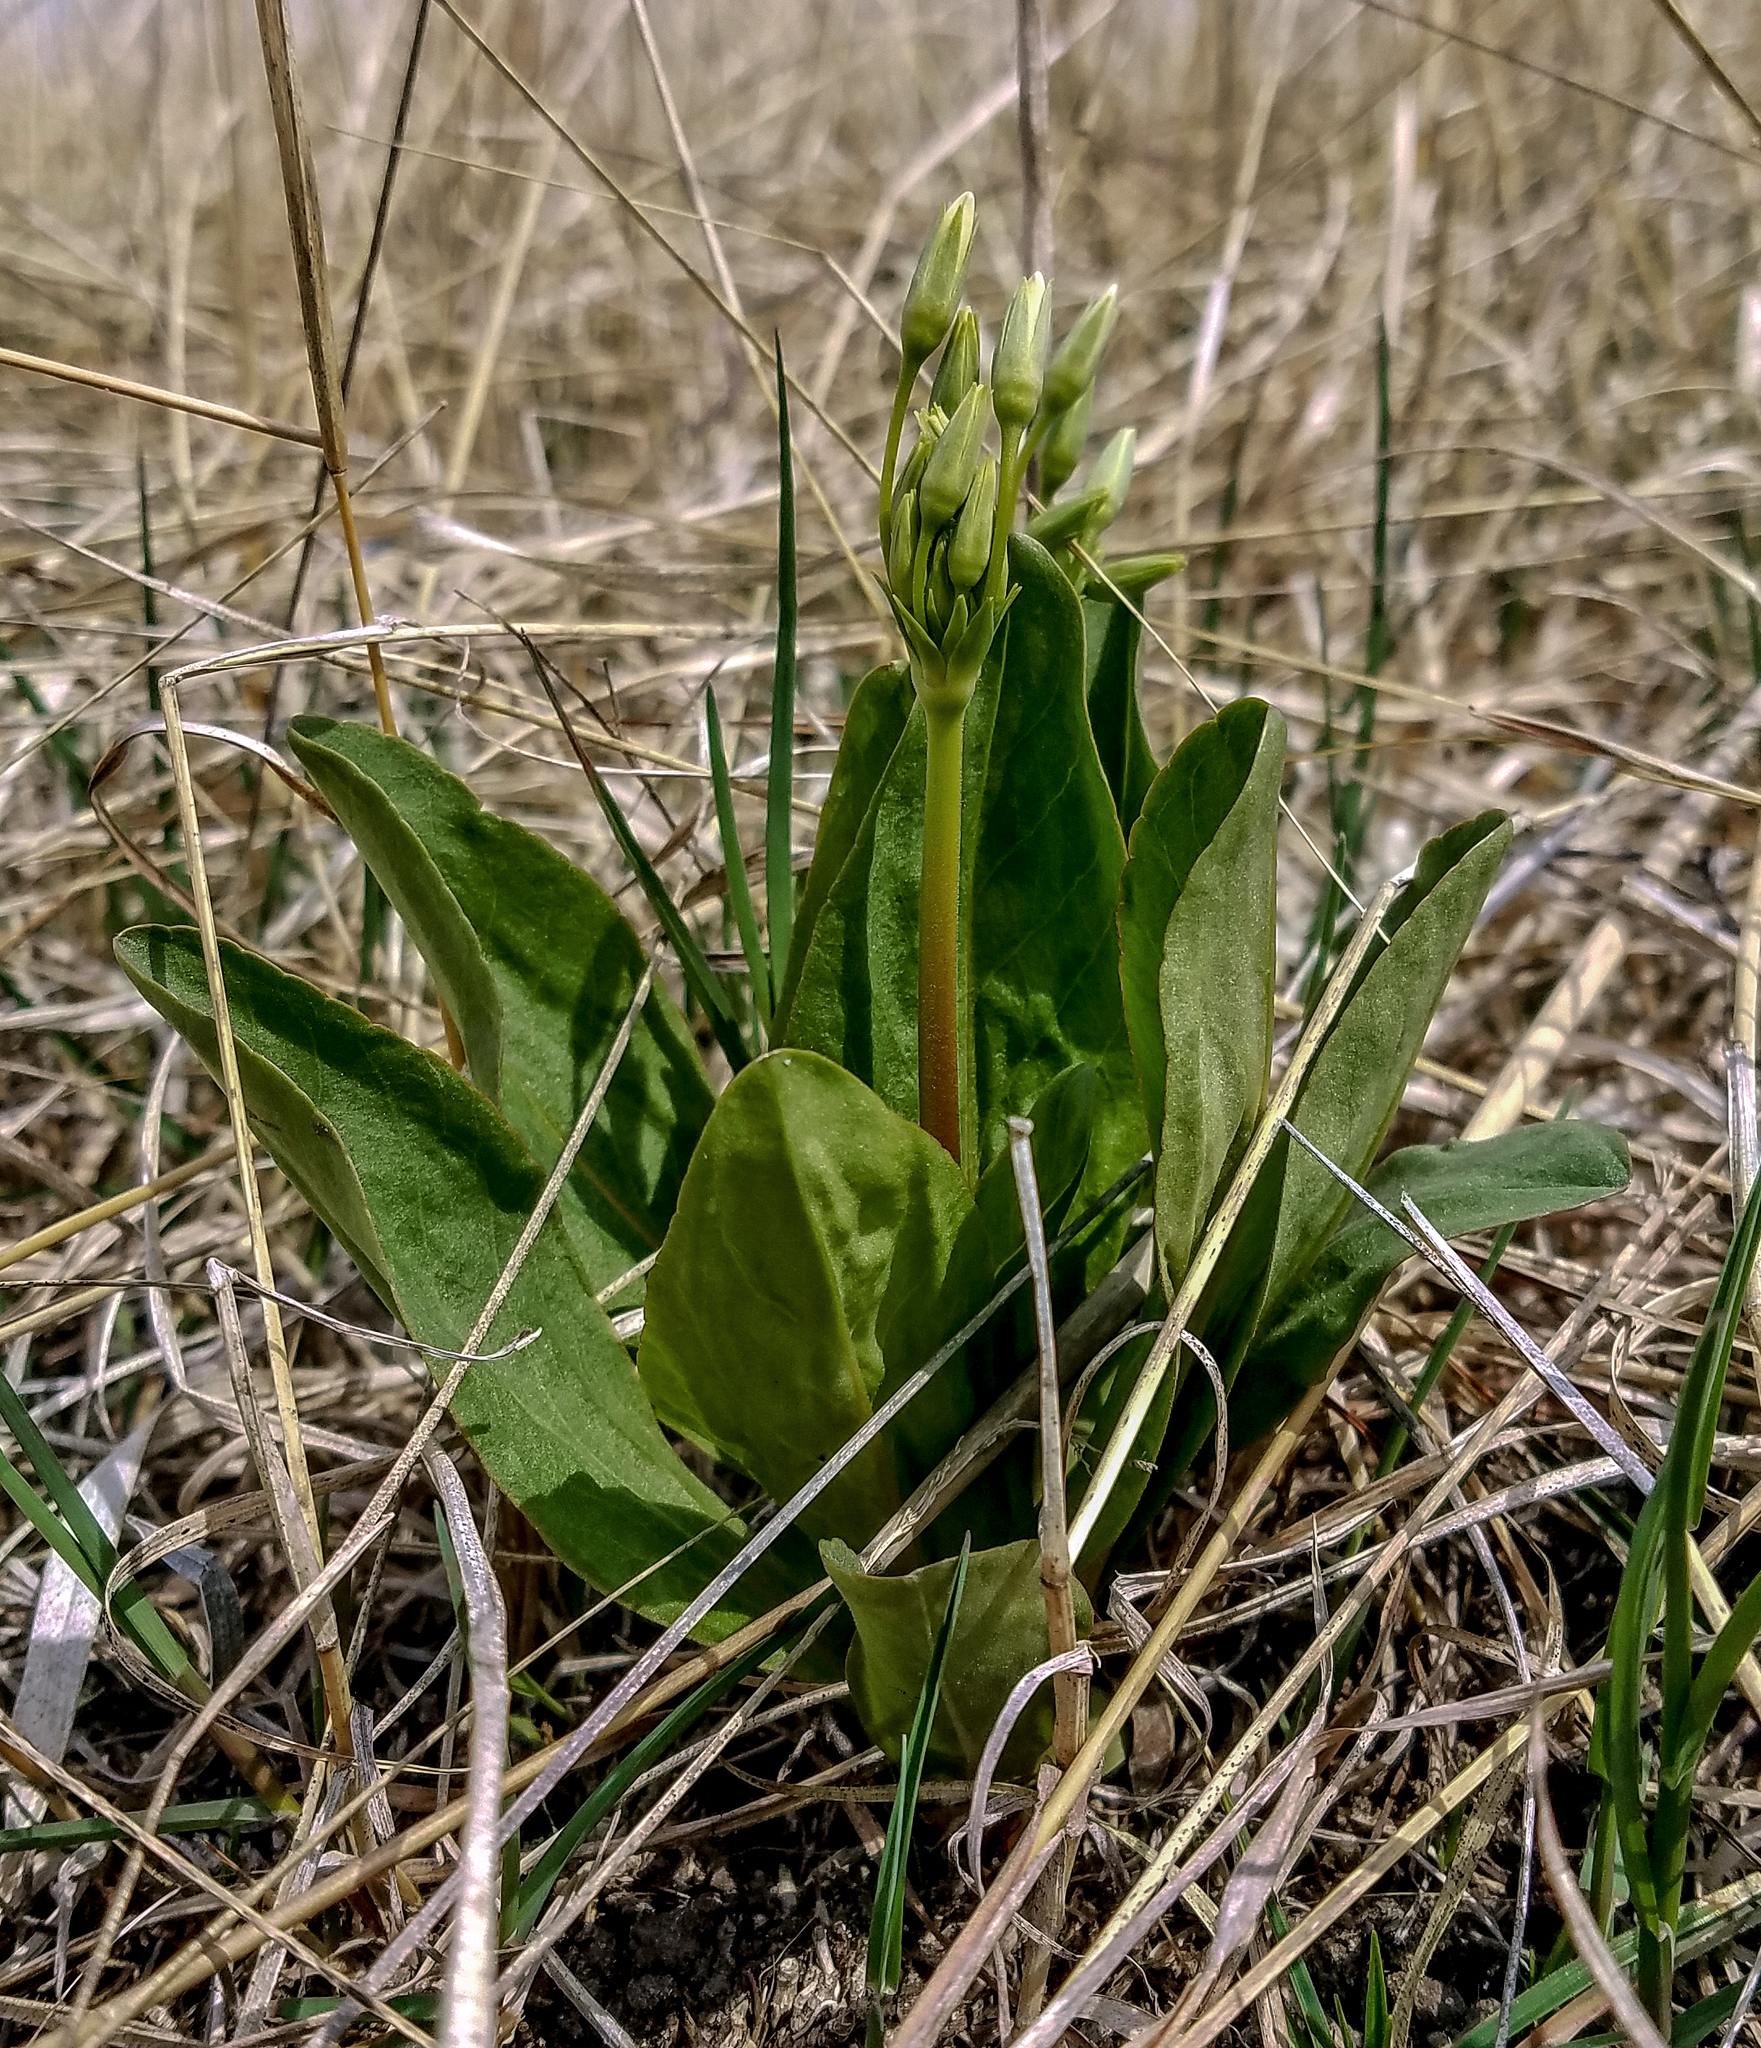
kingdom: Plantae
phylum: Tracheophyta
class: Magnoliopsida
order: Ericales
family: Primulaceae
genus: Dodecatheon
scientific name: Dodecatheon meadia
